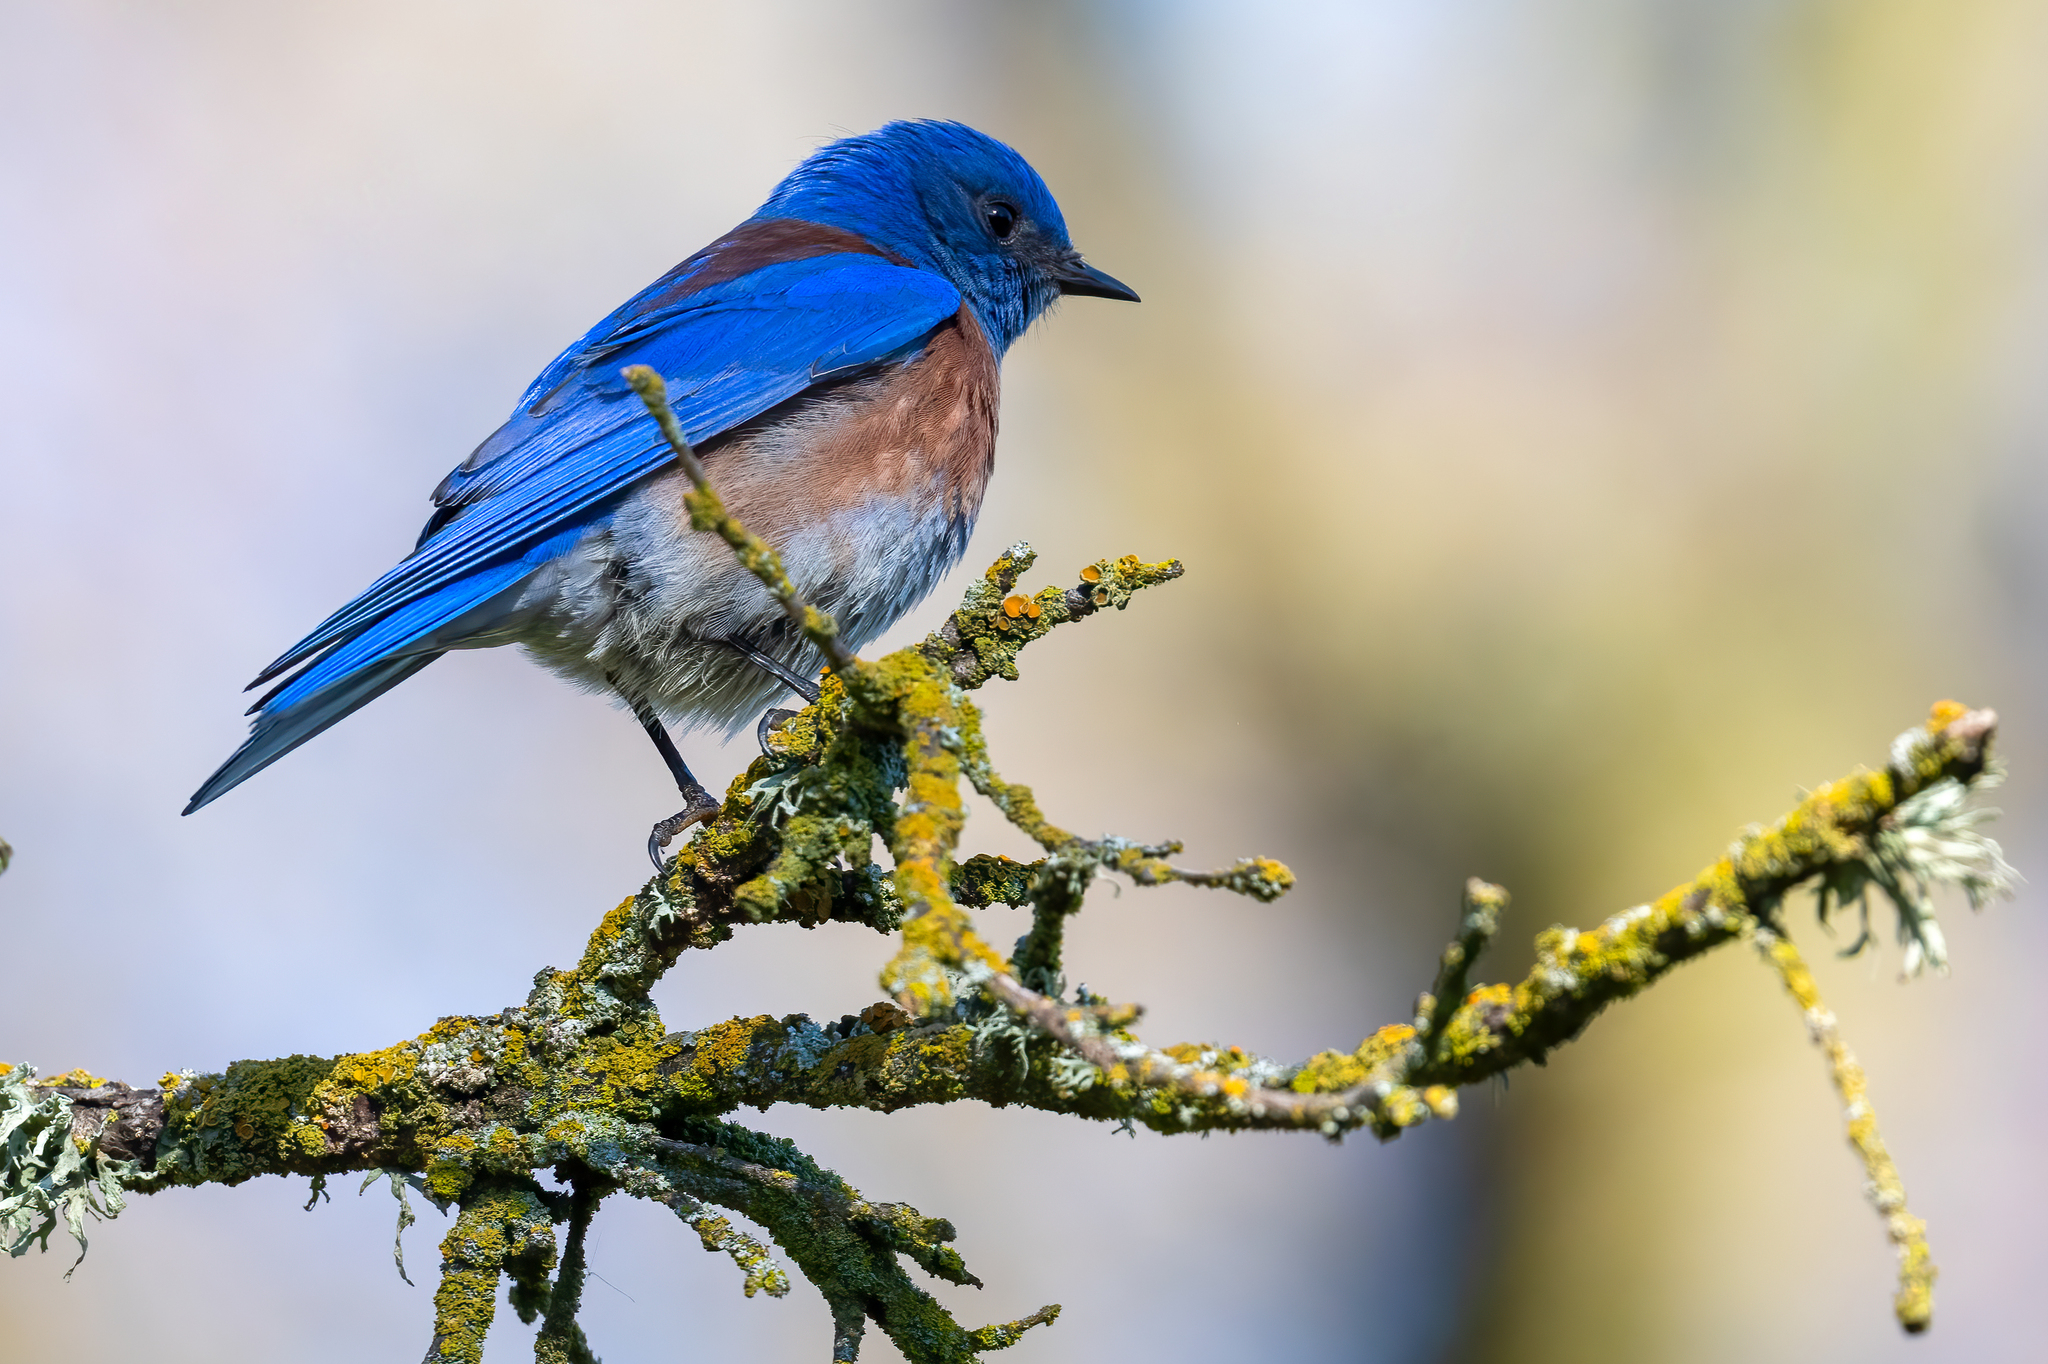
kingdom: Animalia
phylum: Chordata
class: Aves
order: Passeriformes
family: Turdidae
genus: Sialia
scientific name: Sialia mexicana
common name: Western bluebird
